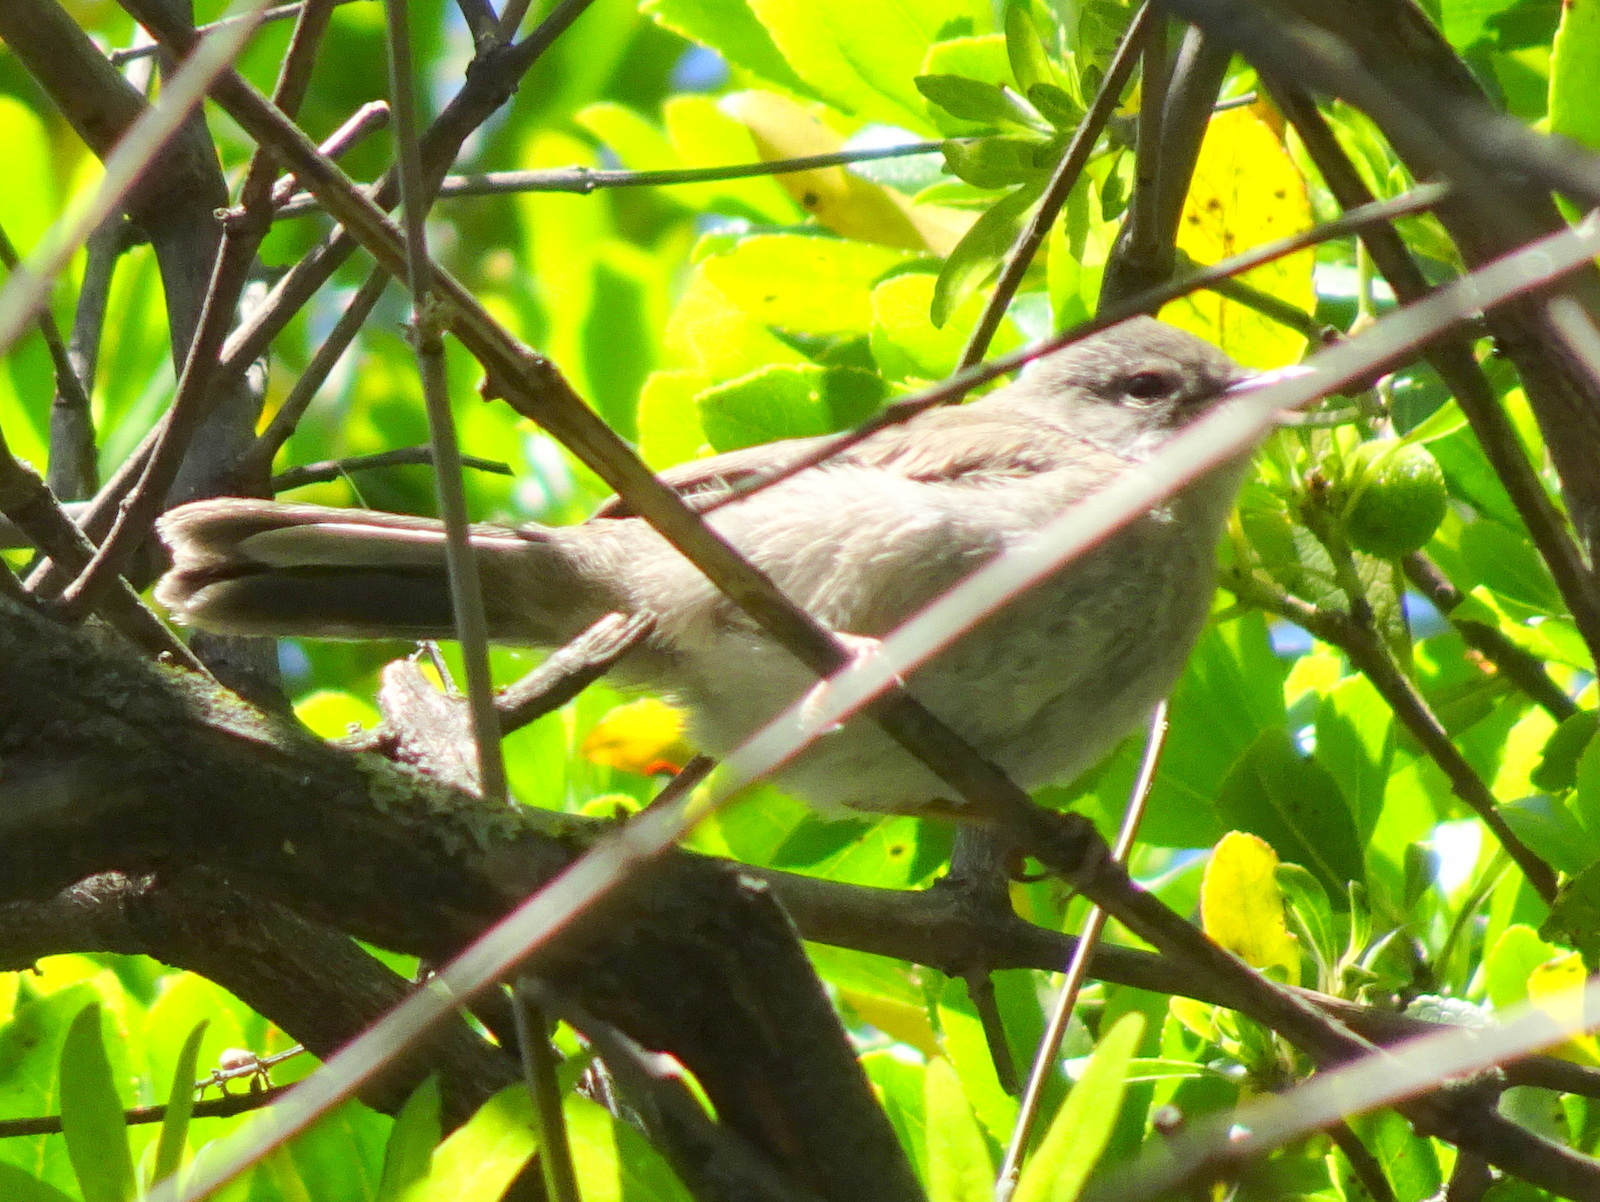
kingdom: Animalia
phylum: Chordata
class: Aves
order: Passeriformes
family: Sylviidae
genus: Curruca
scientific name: Curruca melanocephala
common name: Sardinian warbler
